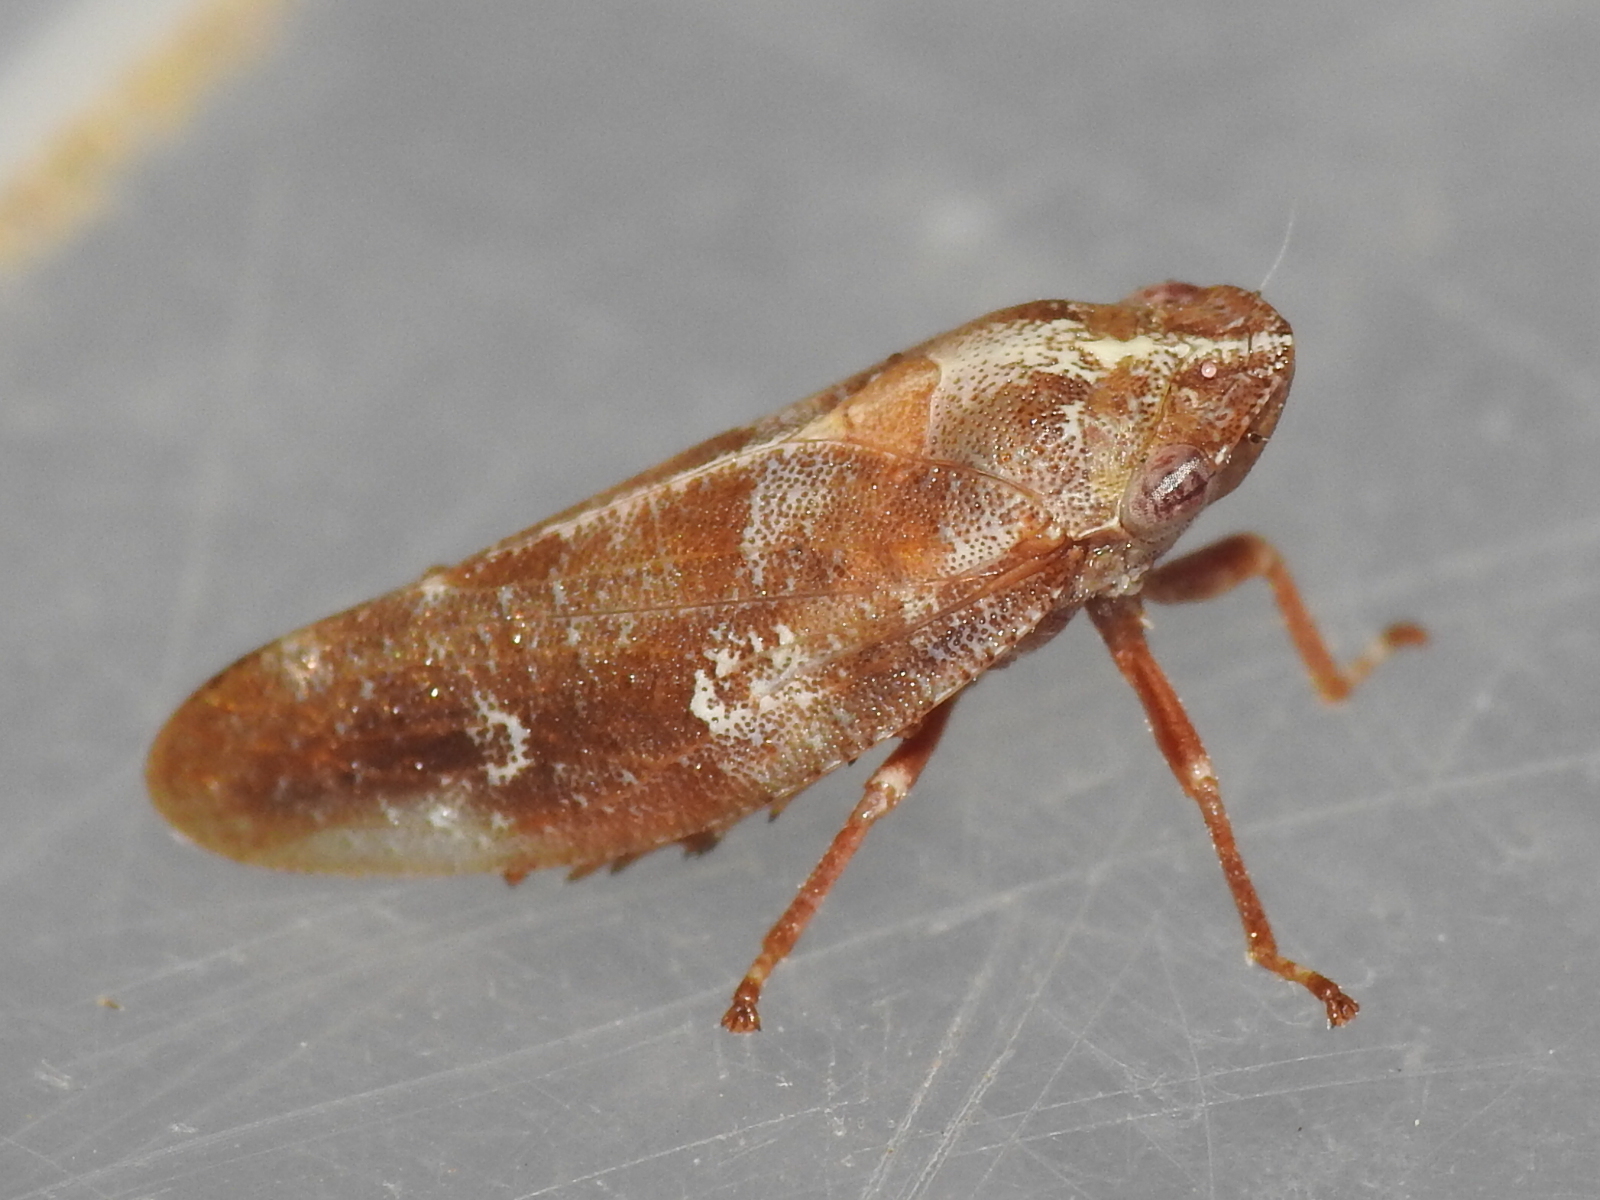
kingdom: Animalia
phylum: Arthropoda
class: Insecta
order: Hemiptera
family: Aphrophoridae
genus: Aphrophora
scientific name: Aphrophora saratogensis
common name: Saratoga spittlebug
